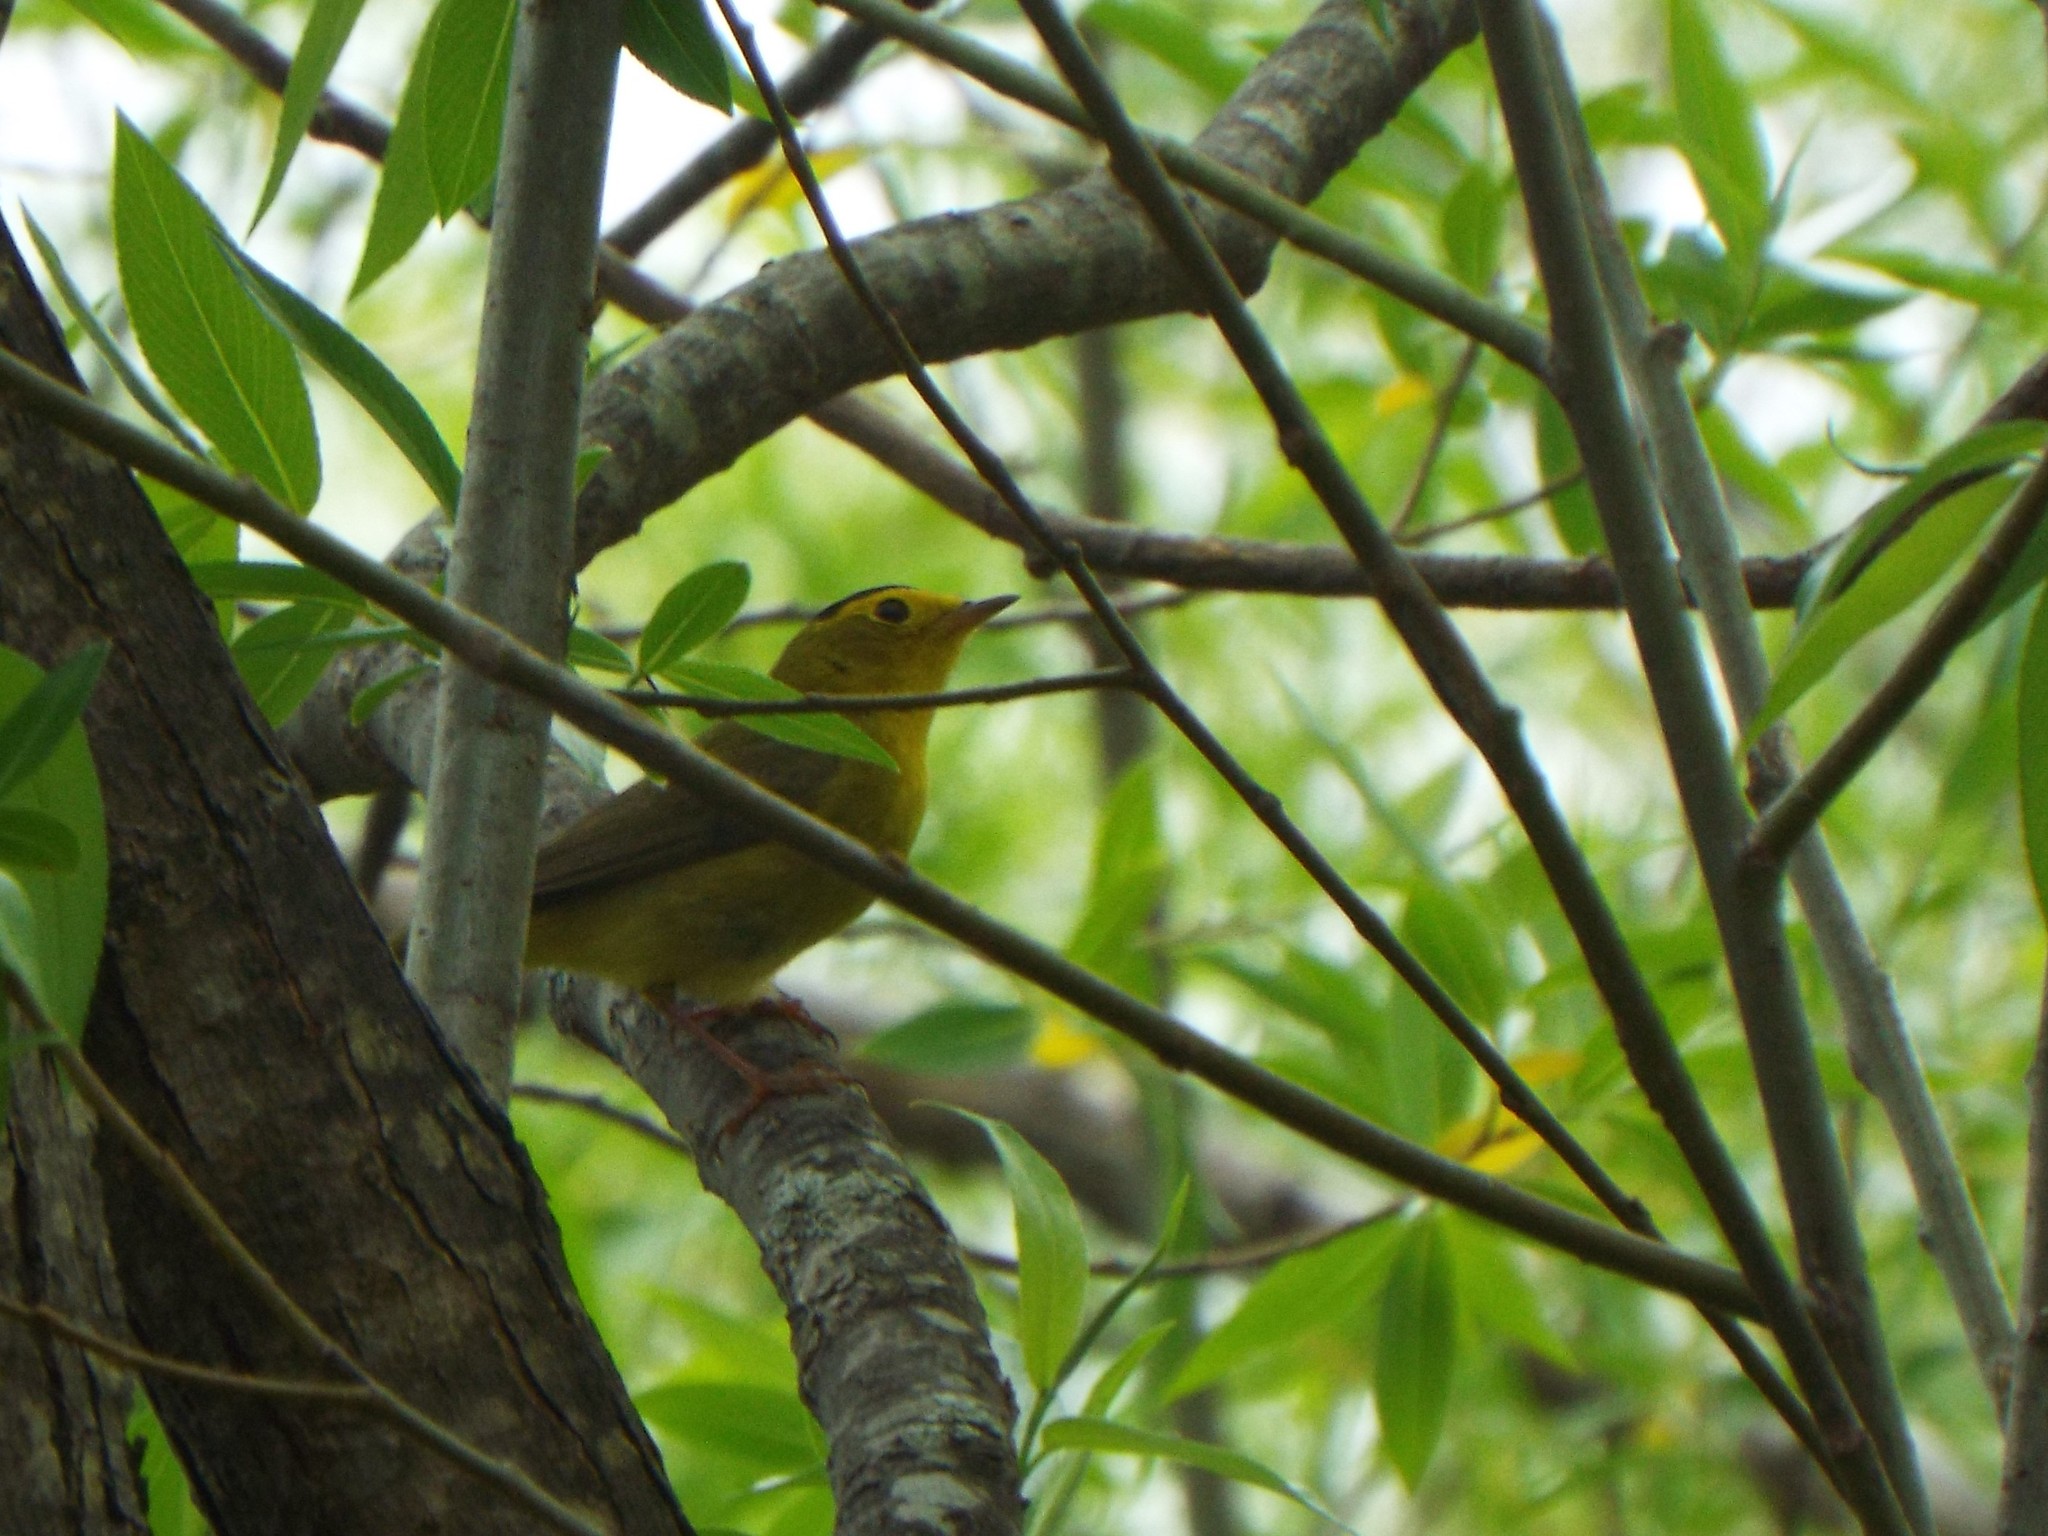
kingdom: Animalia
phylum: Chordata
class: Aves
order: Passeriformes
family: Parulidae
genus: Cardellina
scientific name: Cardellina pusilla
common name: Wilson's warbler
